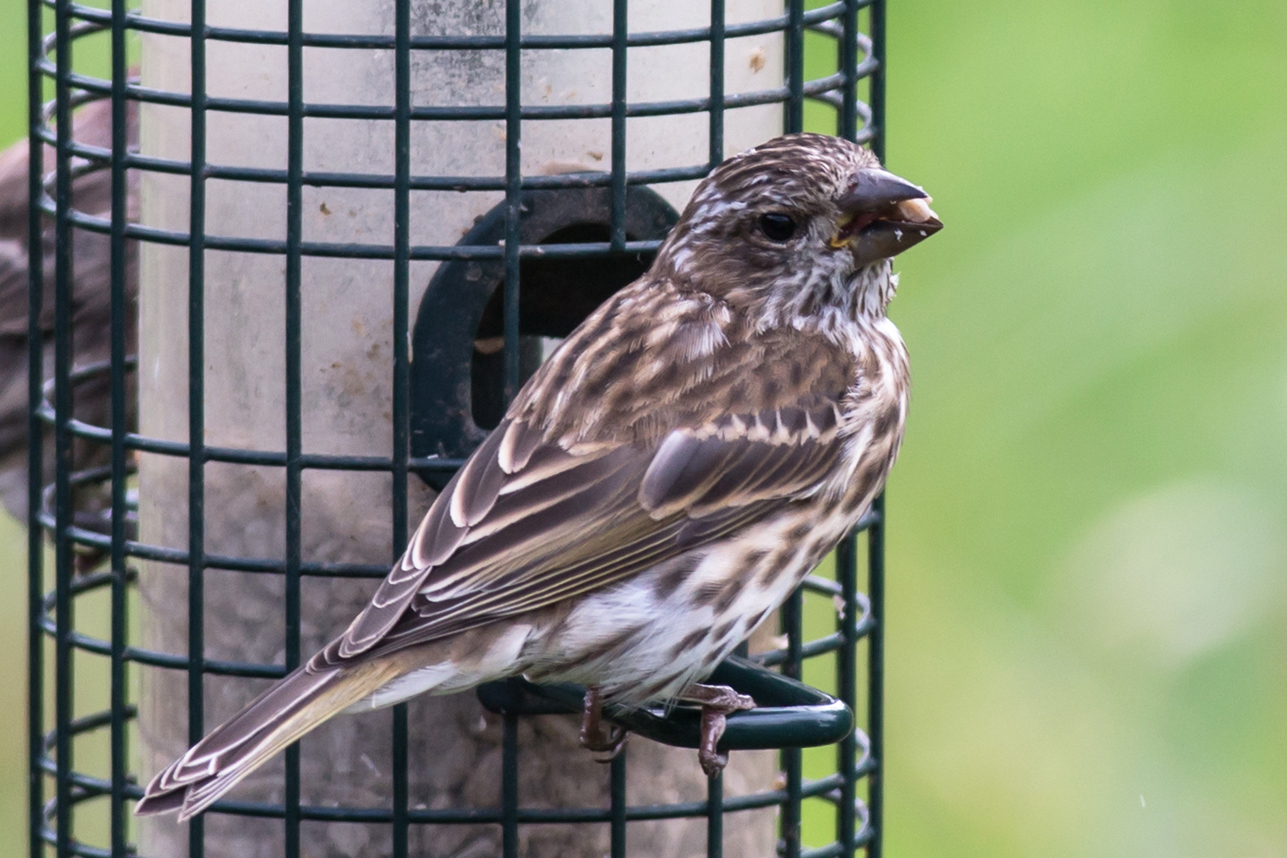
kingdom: Animalia
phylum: Chordata
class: Aves
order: Passeriformes
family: Fringillidae
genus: Haemorhous
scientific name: Haemorhous purpureus
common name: Purple finch
